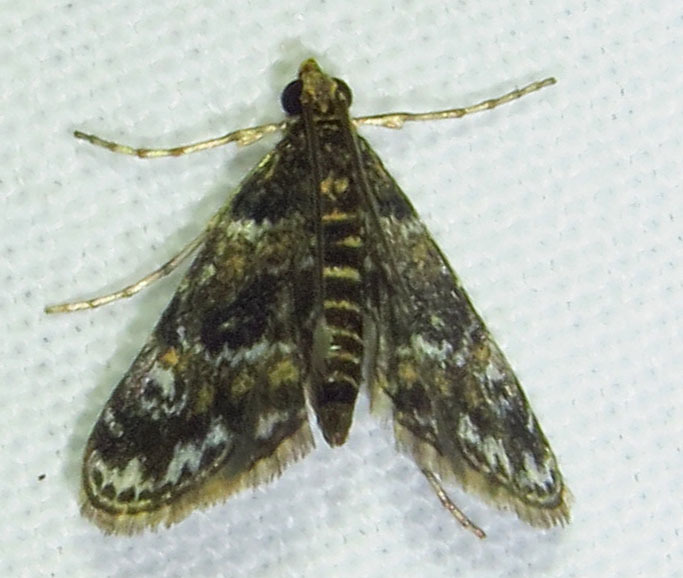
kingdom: Animalia
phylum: Arthropoda
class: Insecta
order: Lepidoptera
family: Crambidae
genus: Elophila
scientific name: Elophila obliteralis
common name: Waterlily leafcutter moth
